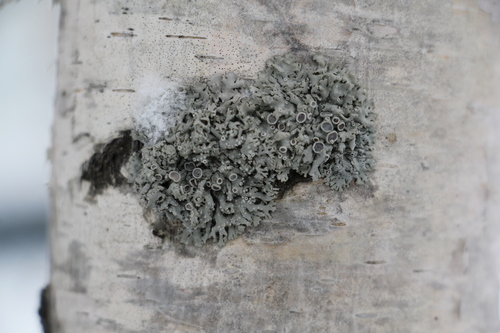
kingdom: Fungi
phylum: Ascomycota
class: Lecanoromycetes
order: Caliciales
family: Physciaceae
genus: Physcia
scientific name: Physcia
